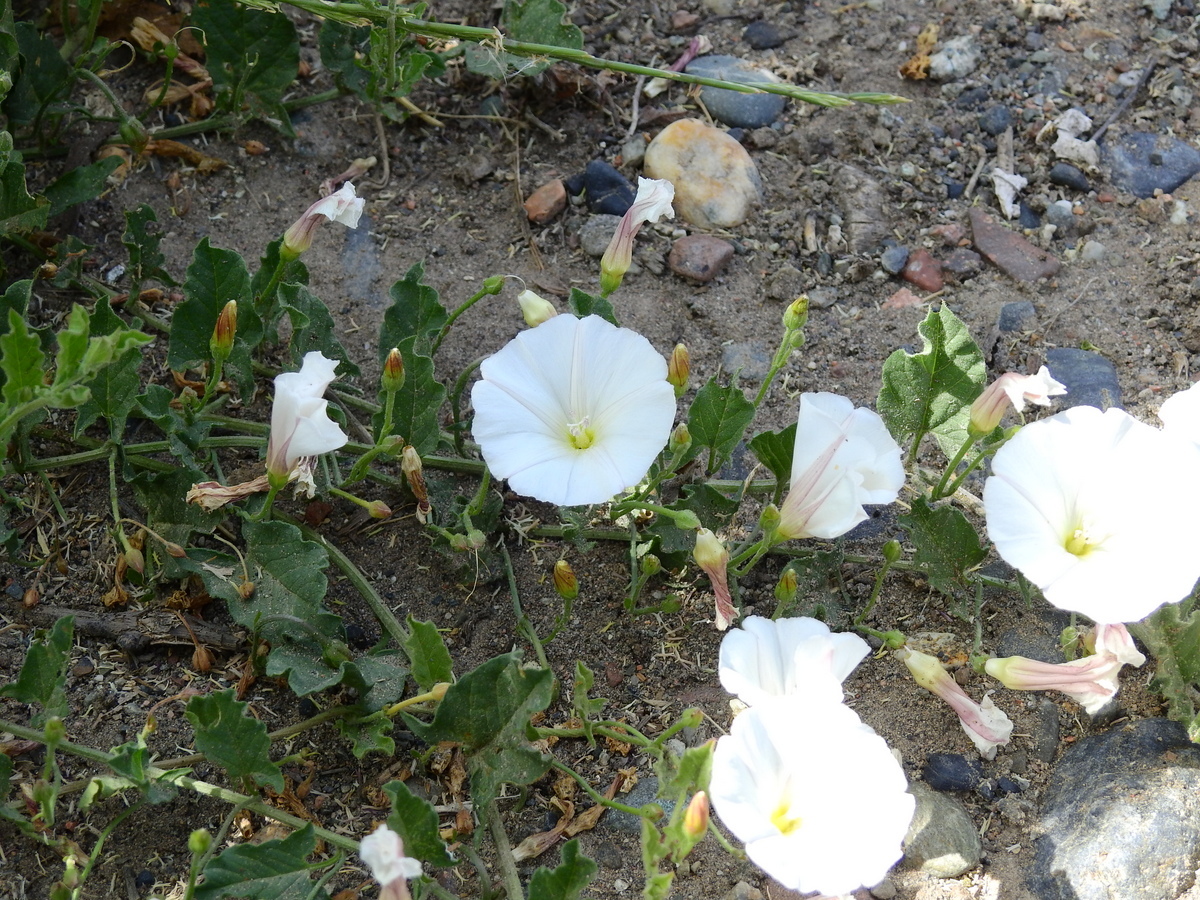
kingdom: Plantae
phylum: Tracheophyta
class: Magnoliopsida
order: Solanales
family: Convolvulaceae
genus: Convolvulus
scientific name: Convolvulus arvensis
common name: Field bindweed
